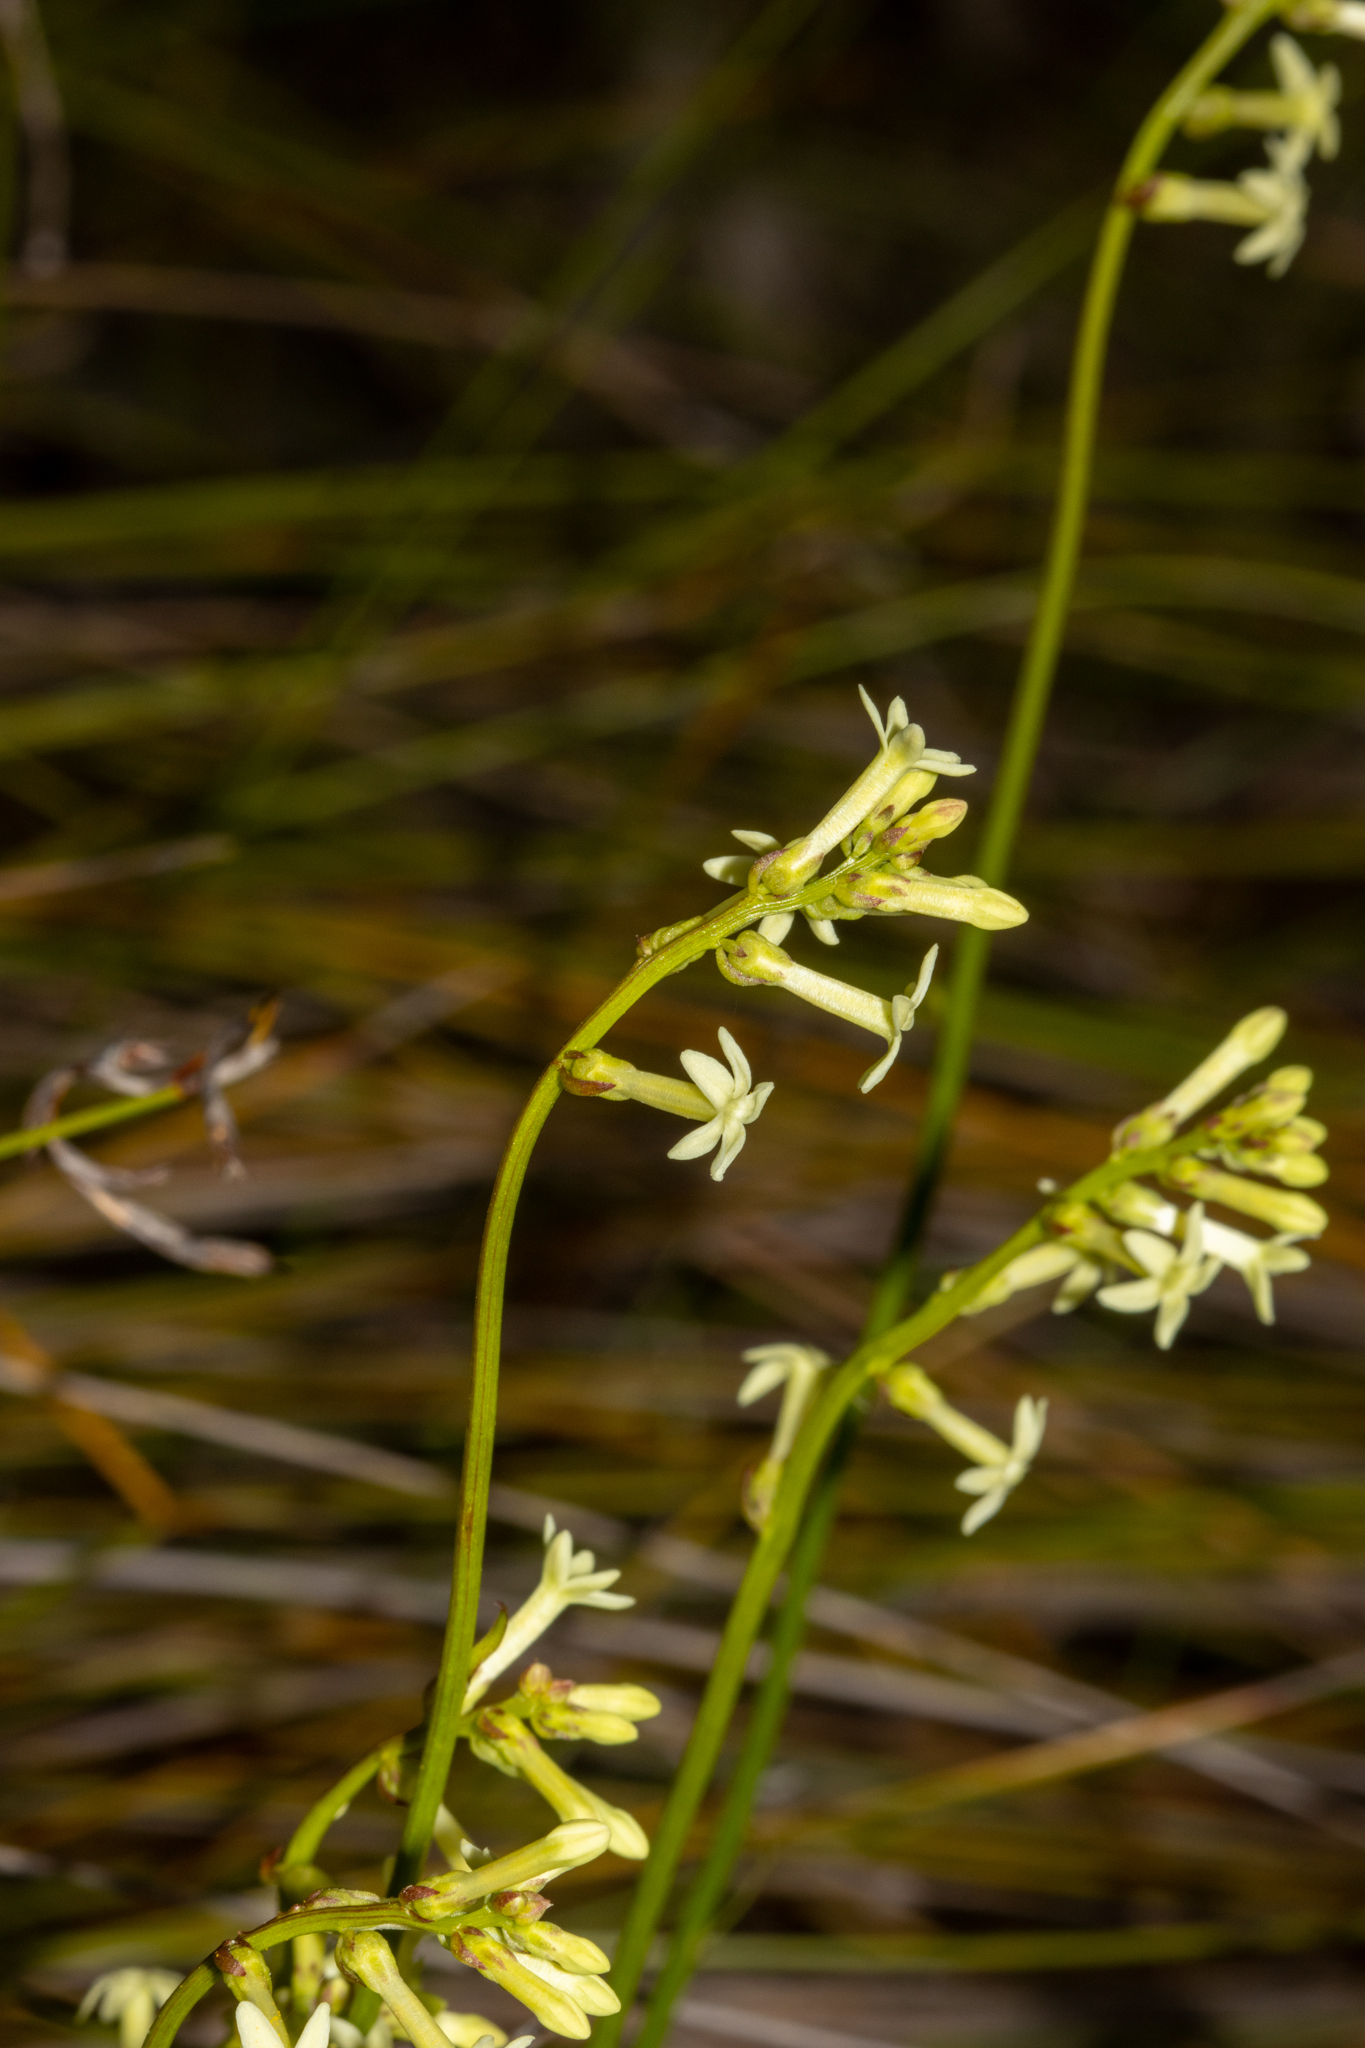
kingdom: Plantae
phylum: Tracheophyta
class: Magnoliopsida
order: Celastrales
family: Celastraceae
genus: Stackhousia
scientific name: Stackhousia monogyna
